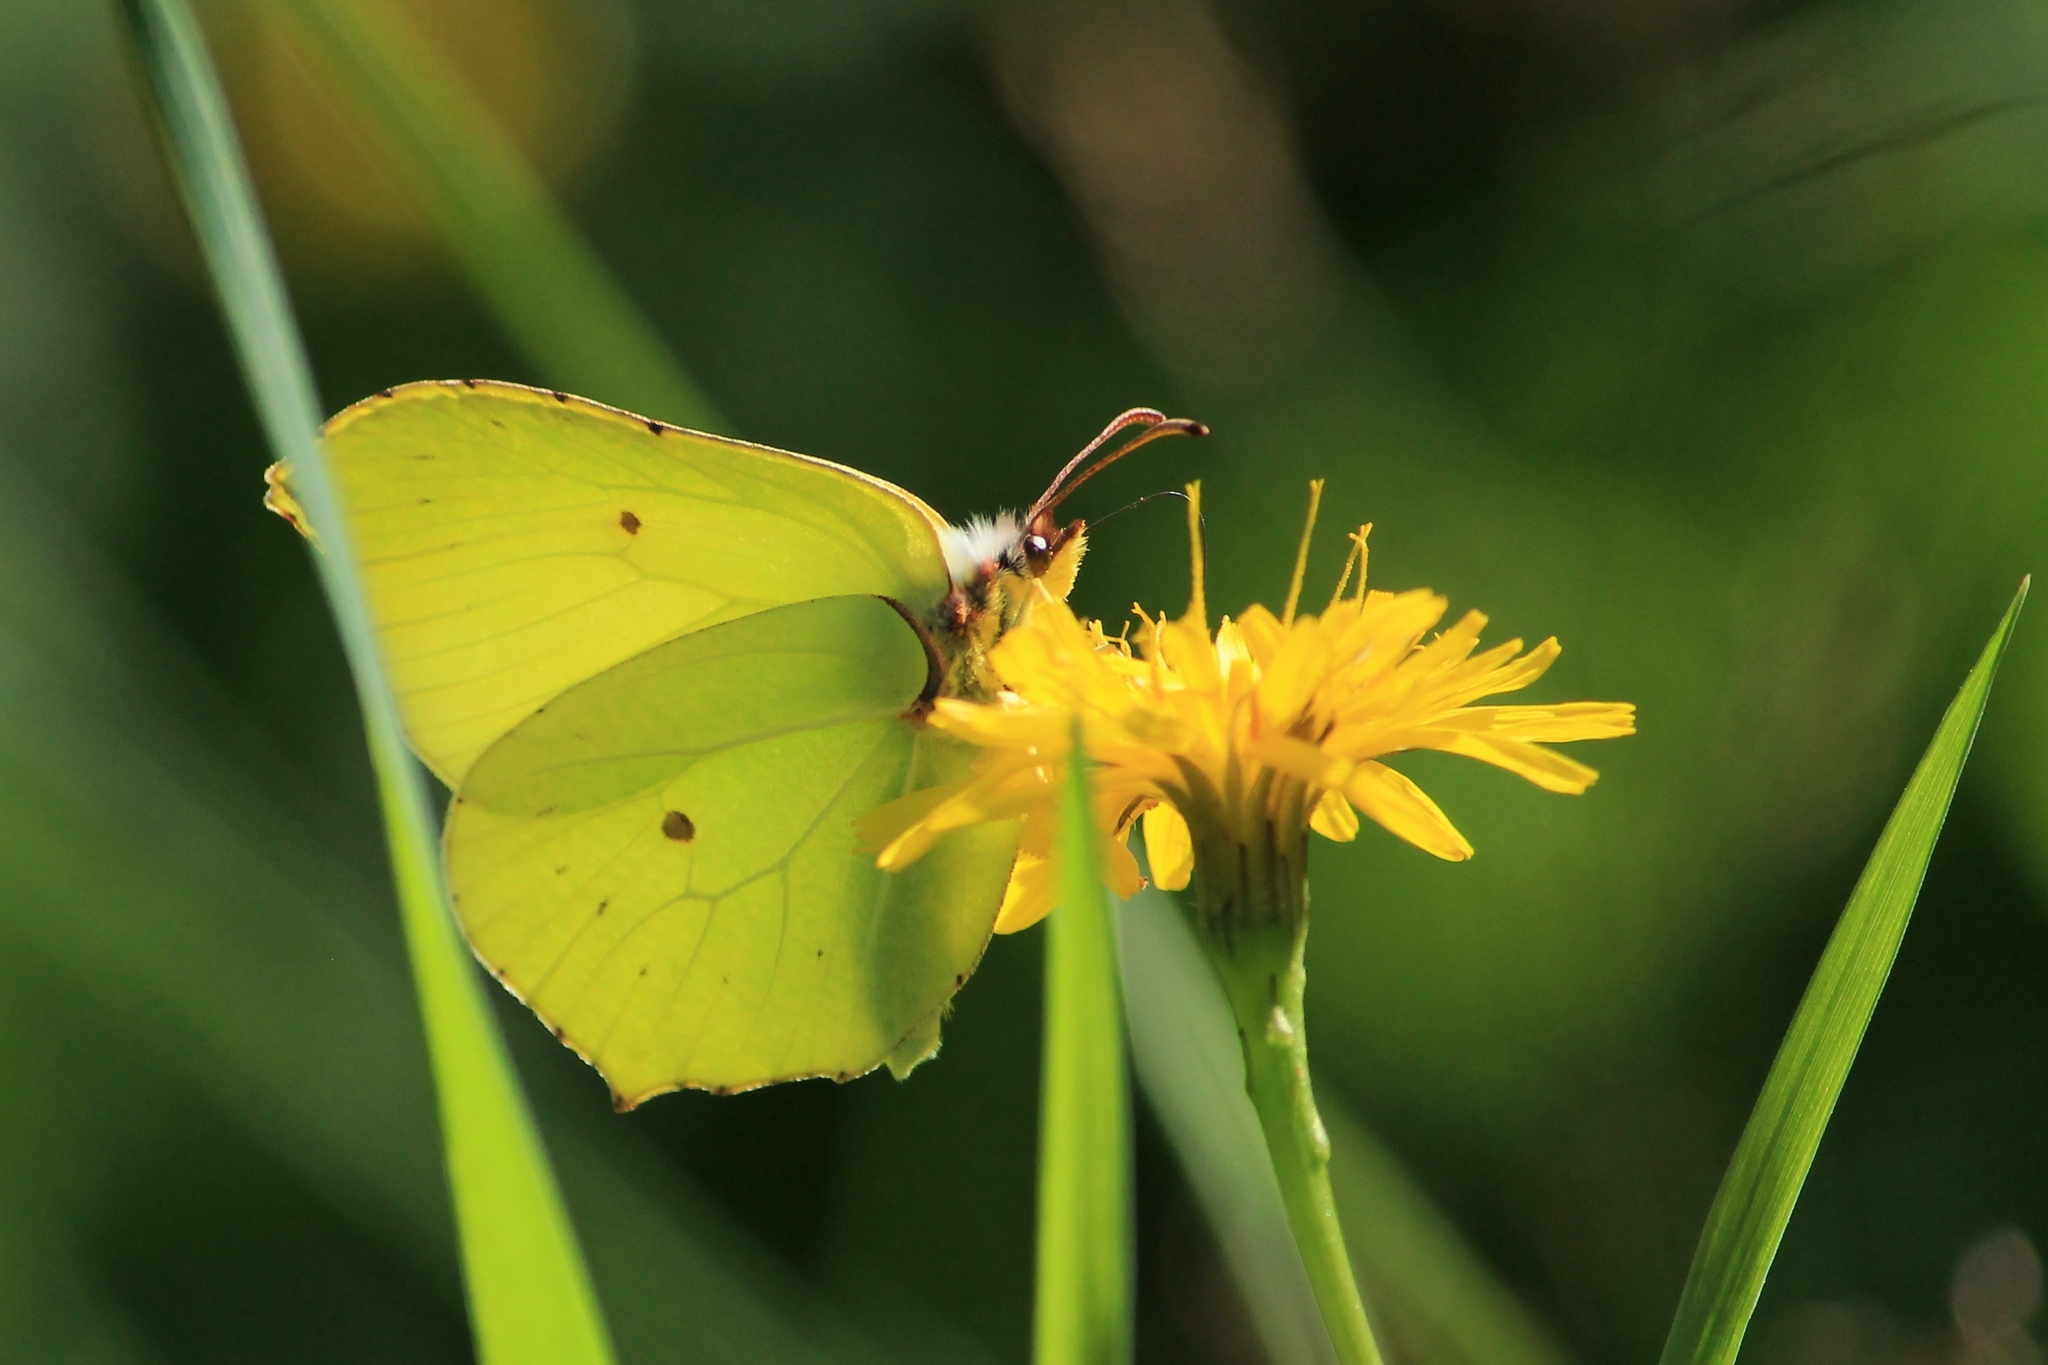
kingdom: Animalia
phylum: Arthropoda
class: Insecta
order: Lepidoptera
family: Pieridae
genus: Gonepteryx
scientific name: Gonepteryx rhamni
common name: Brimstone
